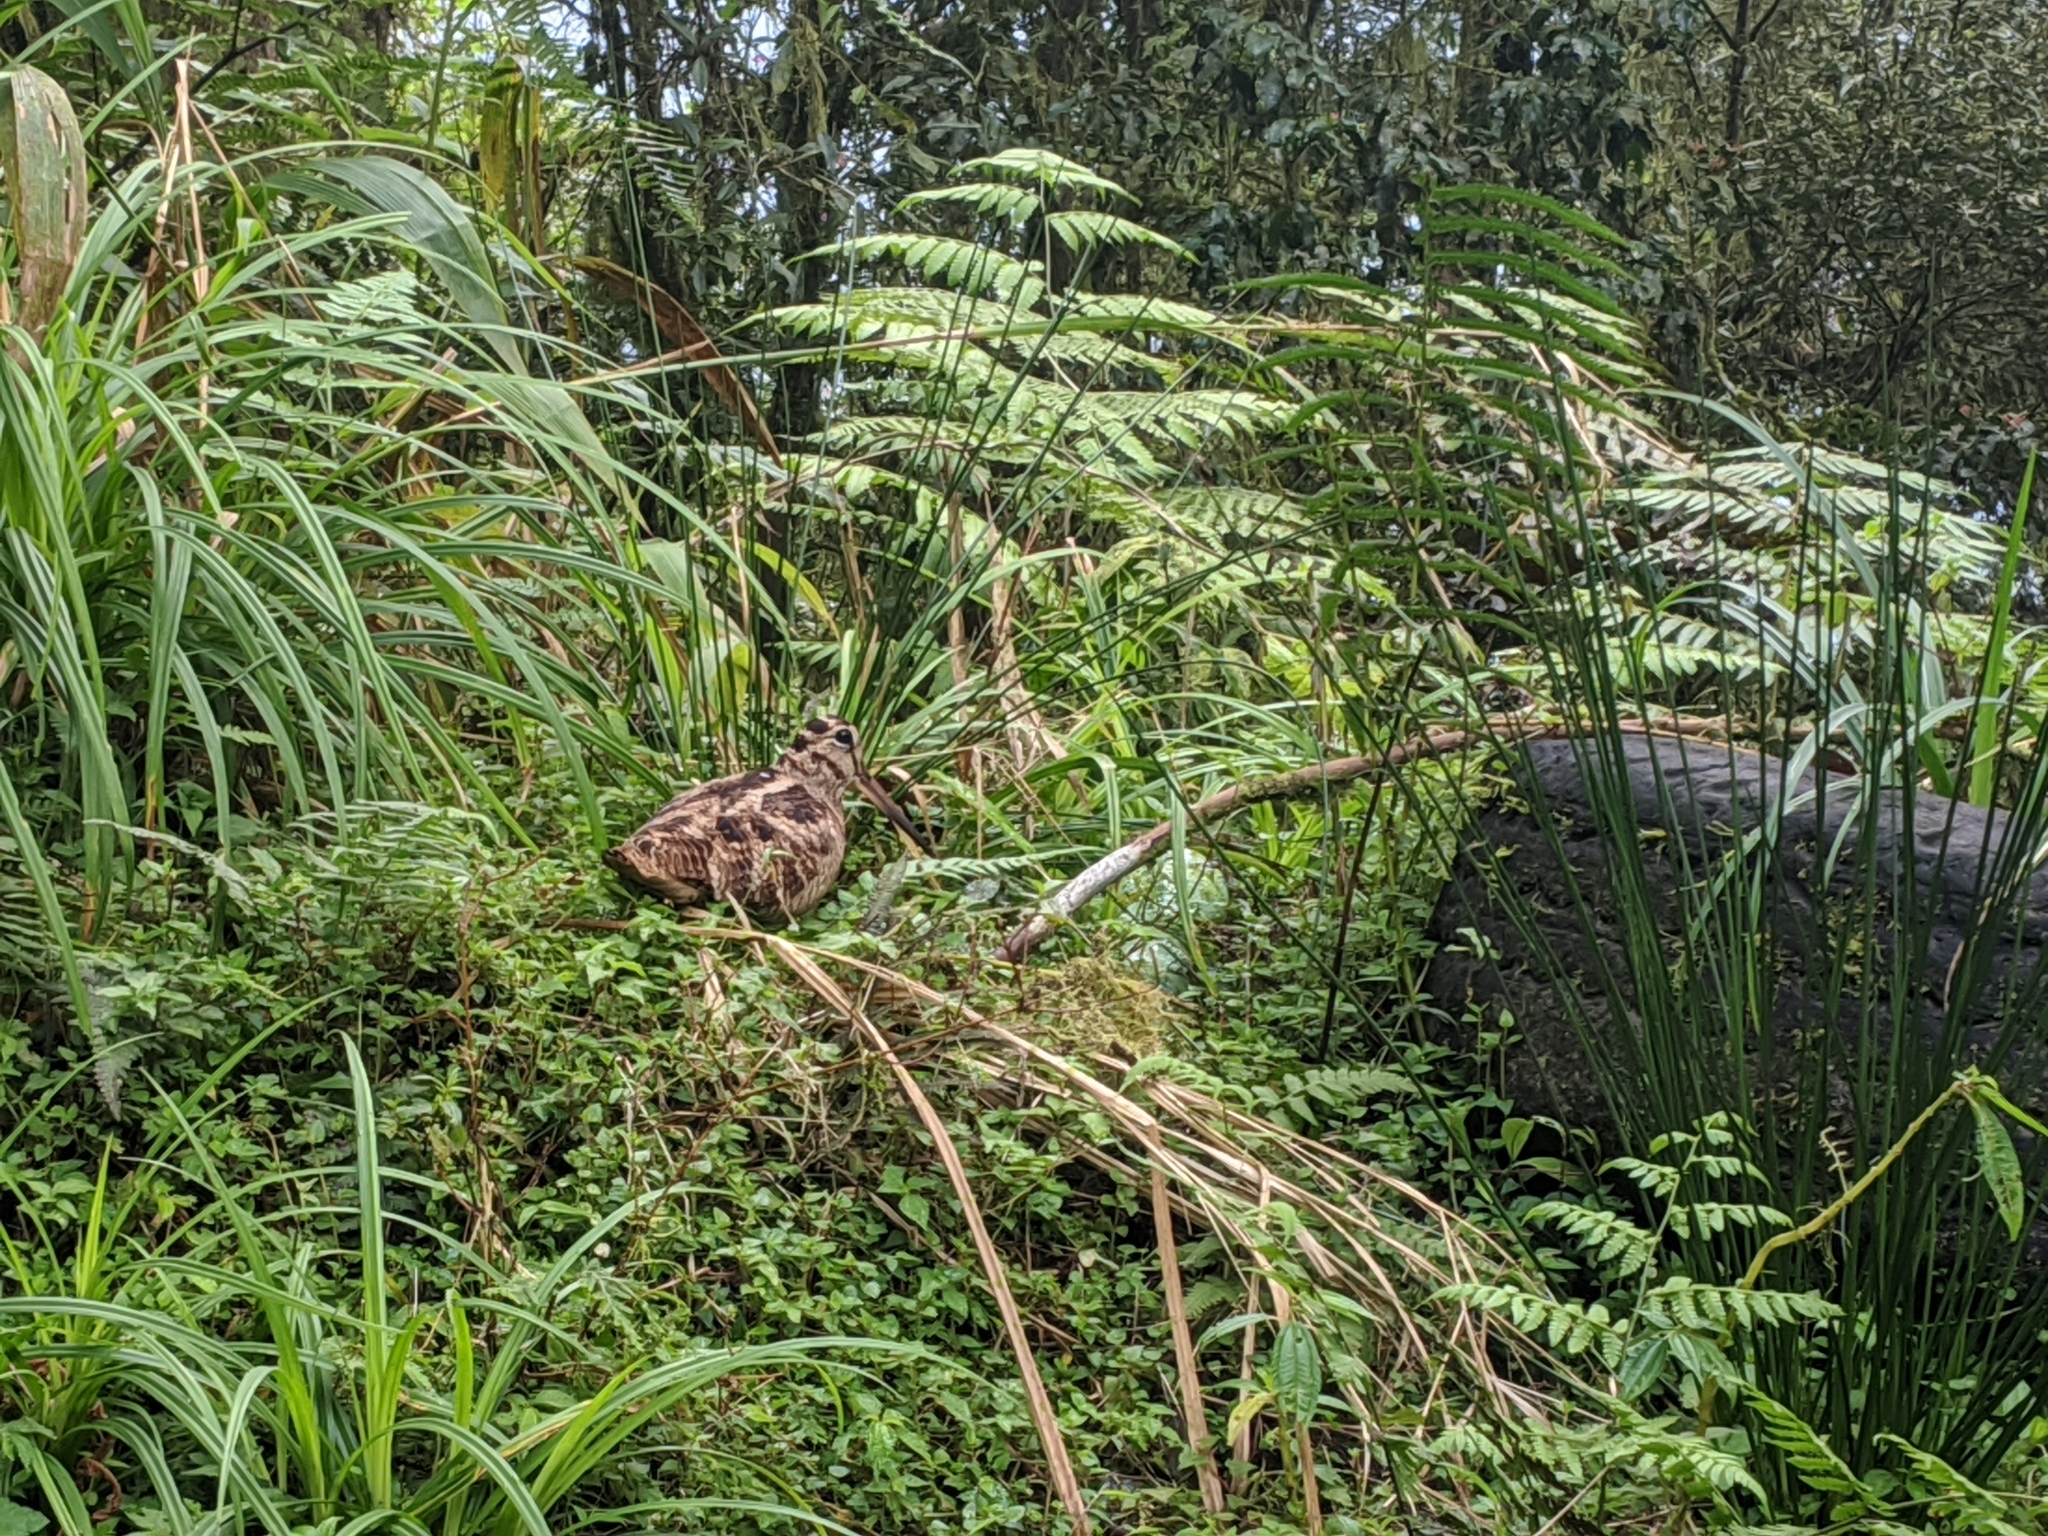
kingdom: Animalia
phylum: Chordata
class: Aves
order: Charadriiformes
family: Scolopacidae
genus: Scolopax
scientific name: Scolopax rusticola
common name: Eurasian woodcock
